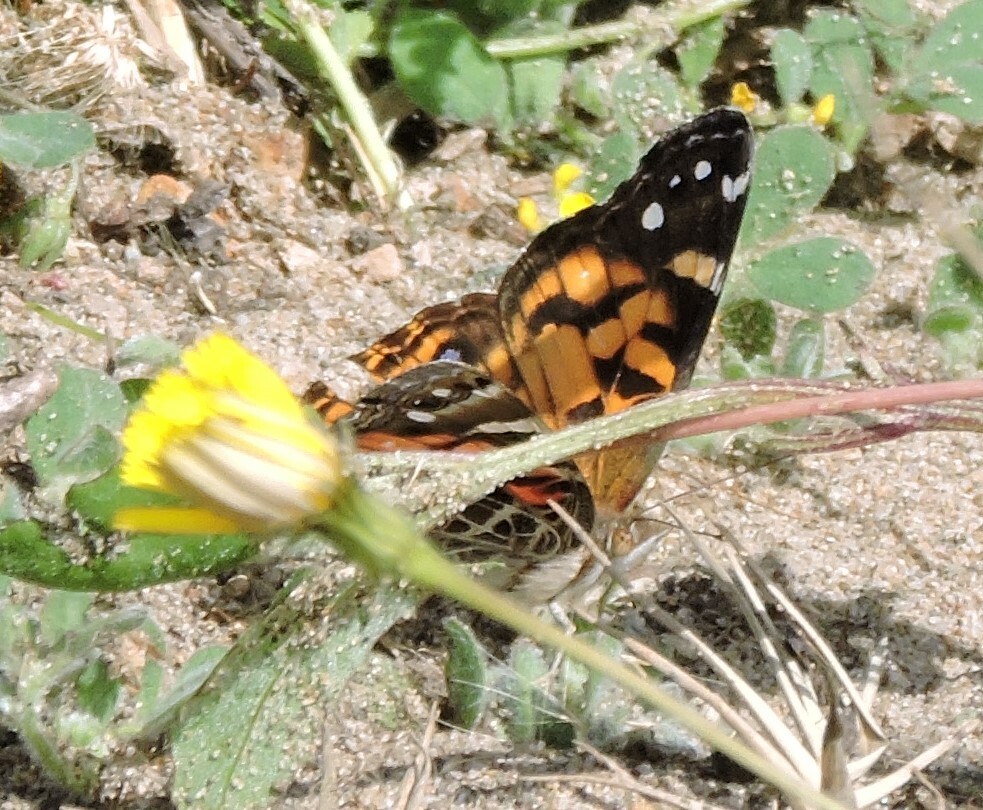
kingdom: Animalia
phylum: Arthropoda
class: Insecta
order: Lepidoptera
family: Nymphalidae
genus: Vanessa
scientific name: Vanessa virginiensis
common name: American lady
